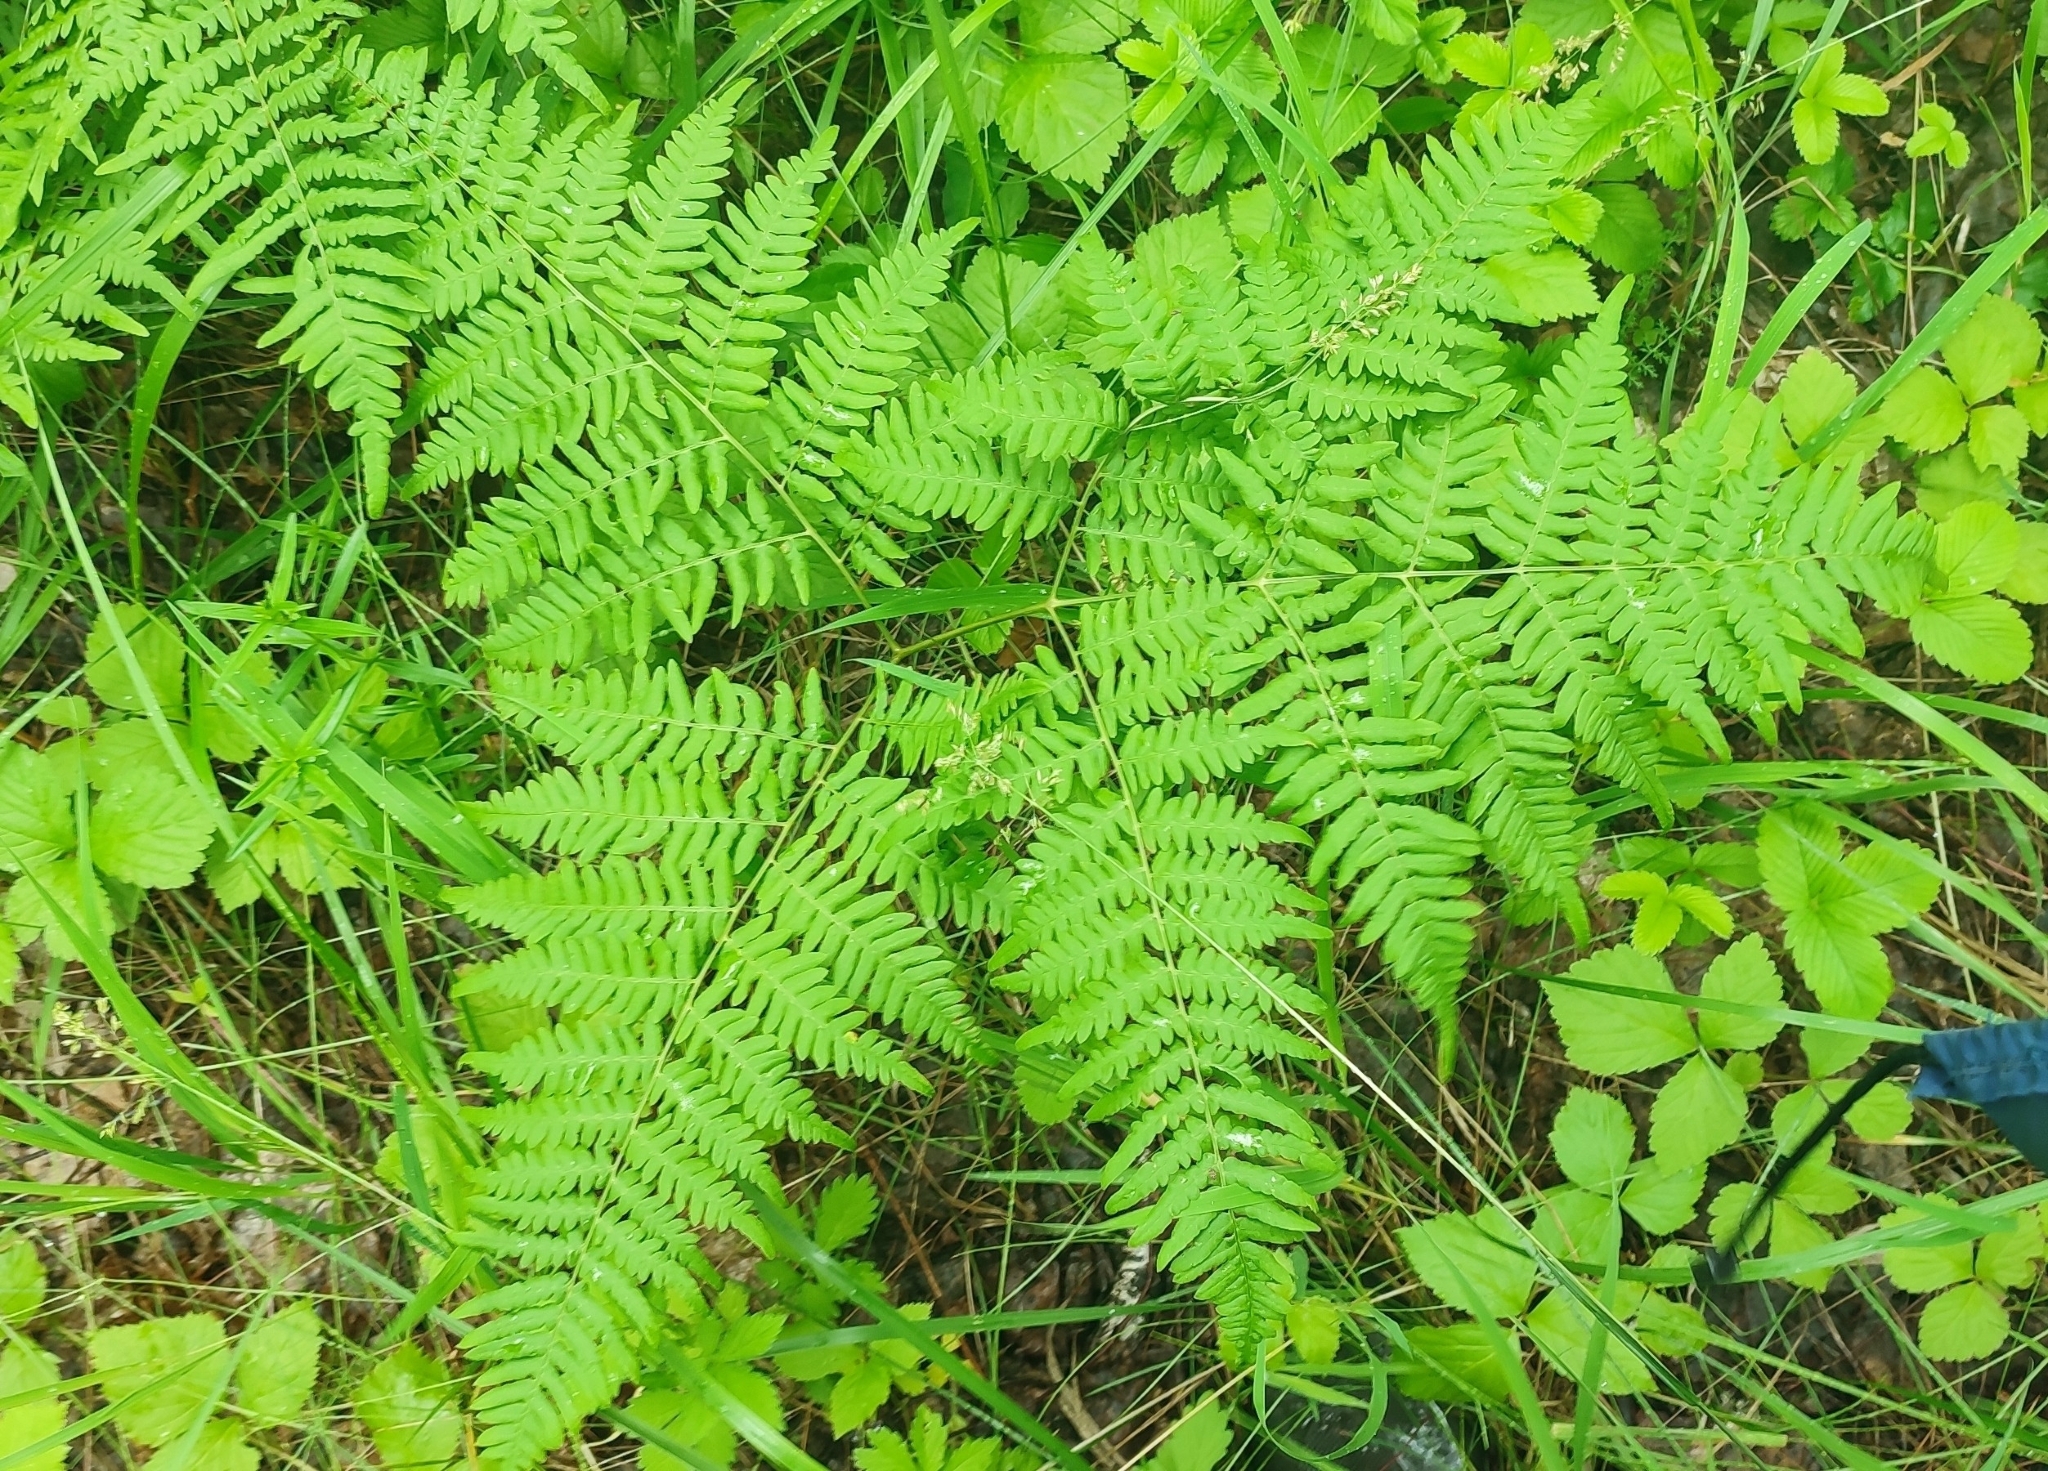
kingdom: Plantae
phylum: Tracheophyta
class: Polypodiopsida
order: Polypodiales
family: Dennstaedtiaceae
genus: Pteridium
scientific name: Pteridium aquilinum
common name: Bracken
